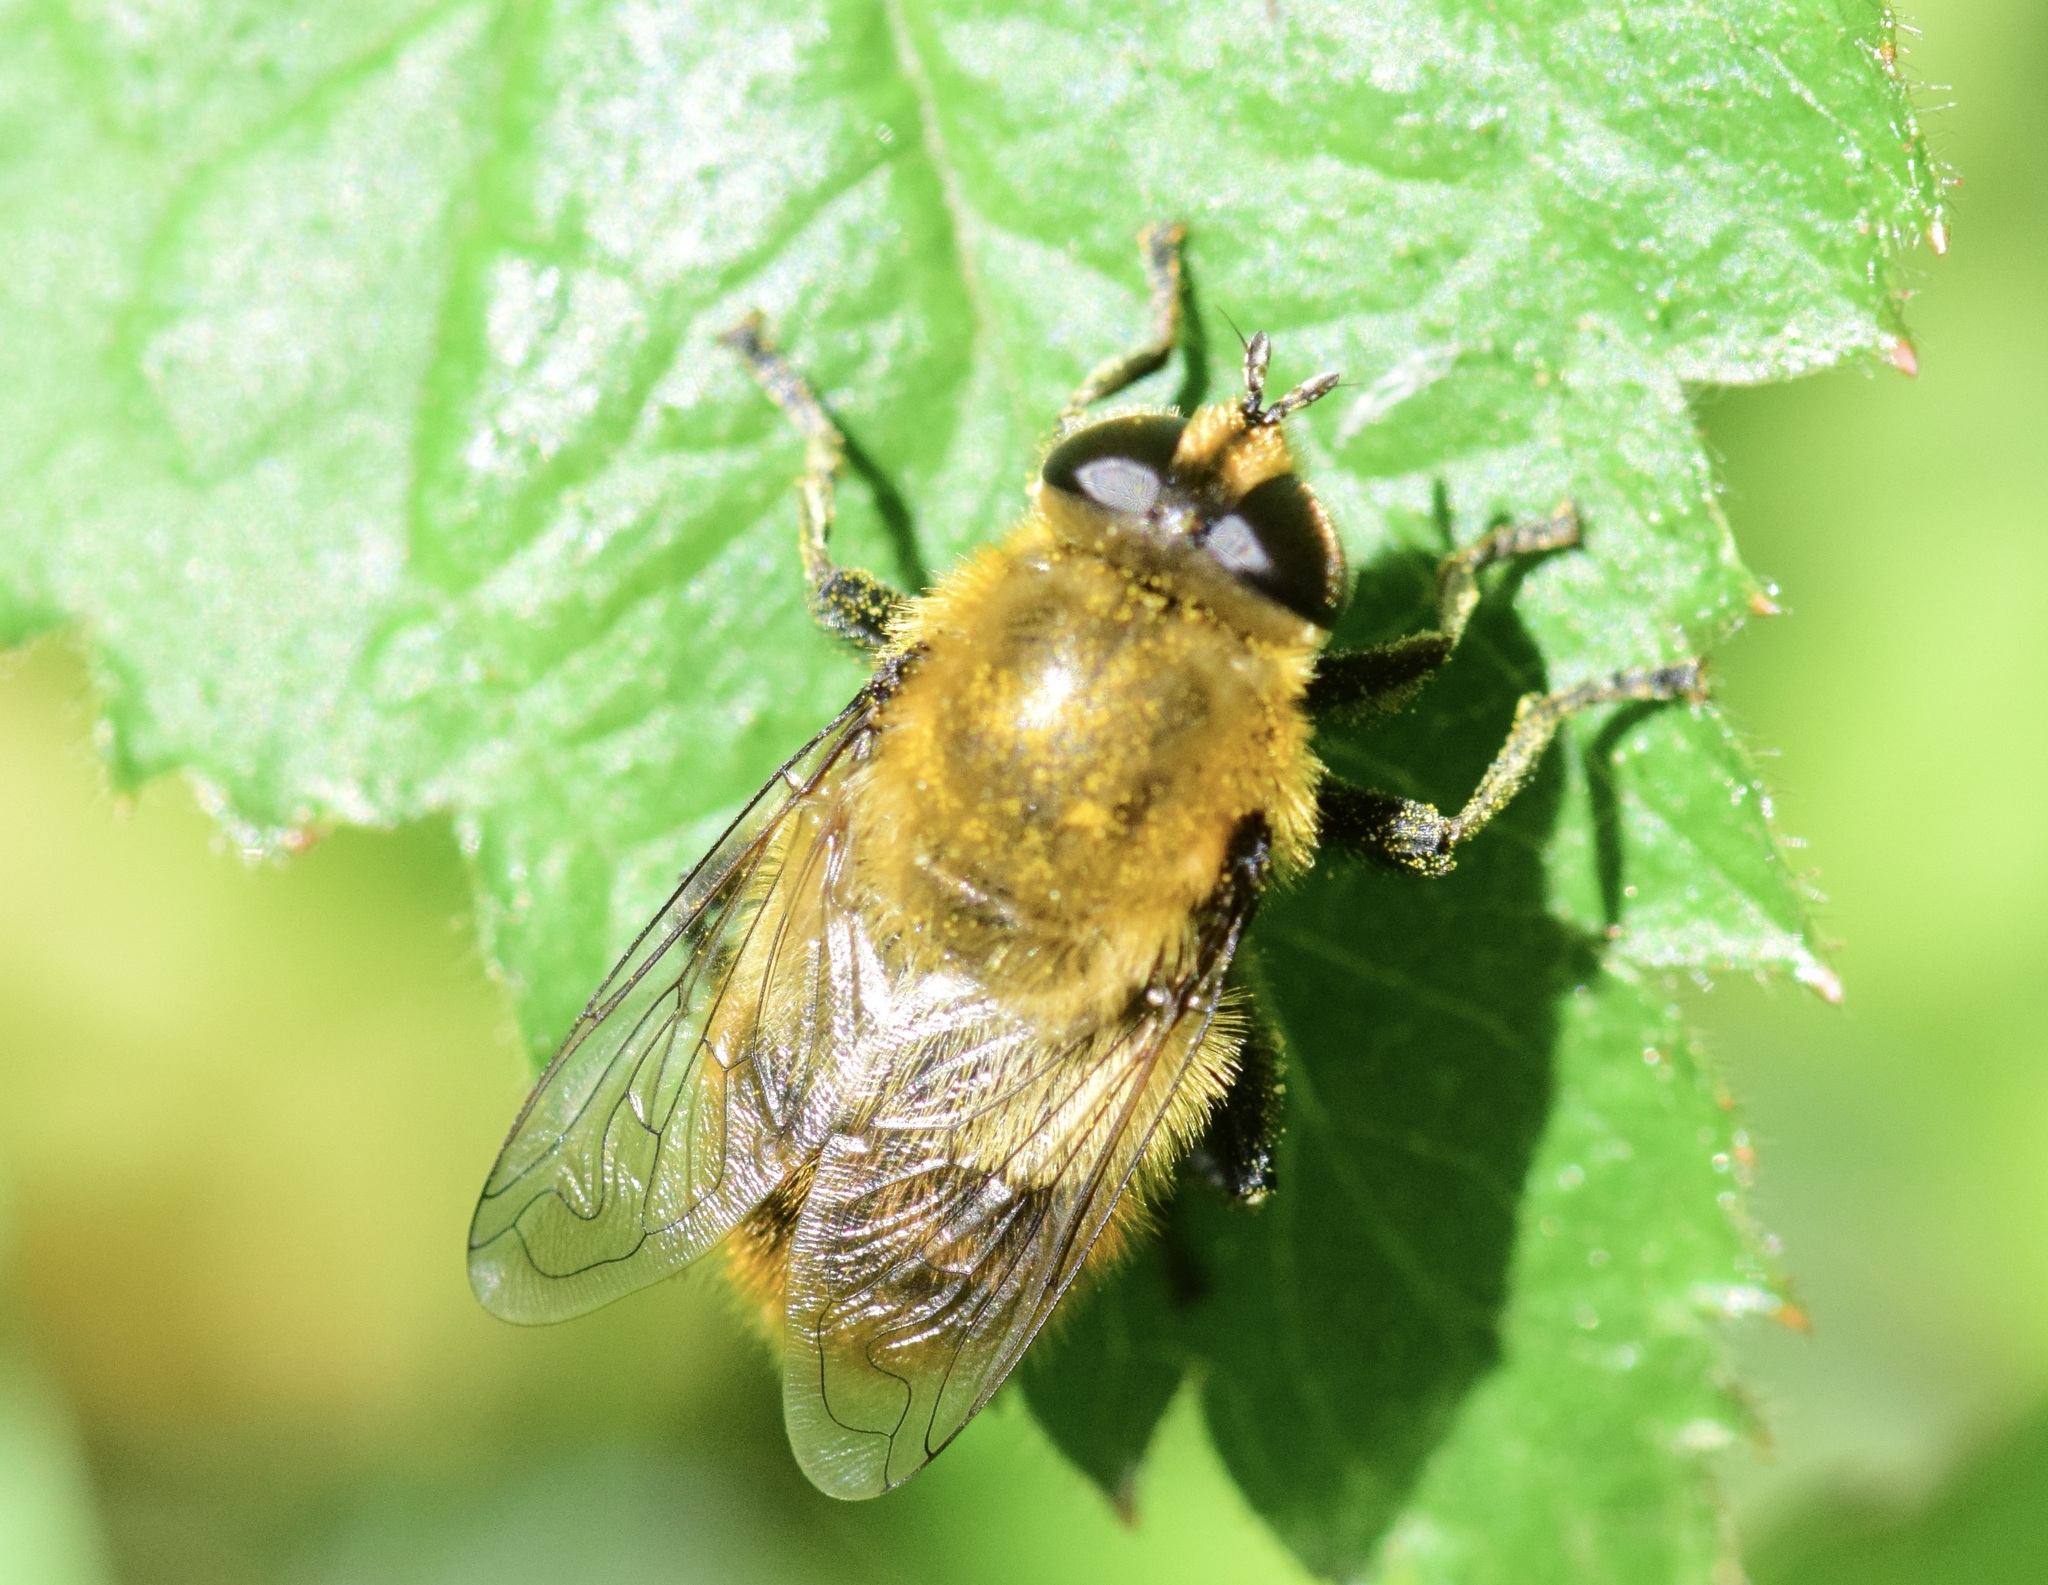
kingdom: Animalia
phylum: Arthropoda
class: Insecta
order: Diptera
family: Syrphidae
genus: Merodon
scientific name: Merodon equestris
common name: Greater bulb-fly
